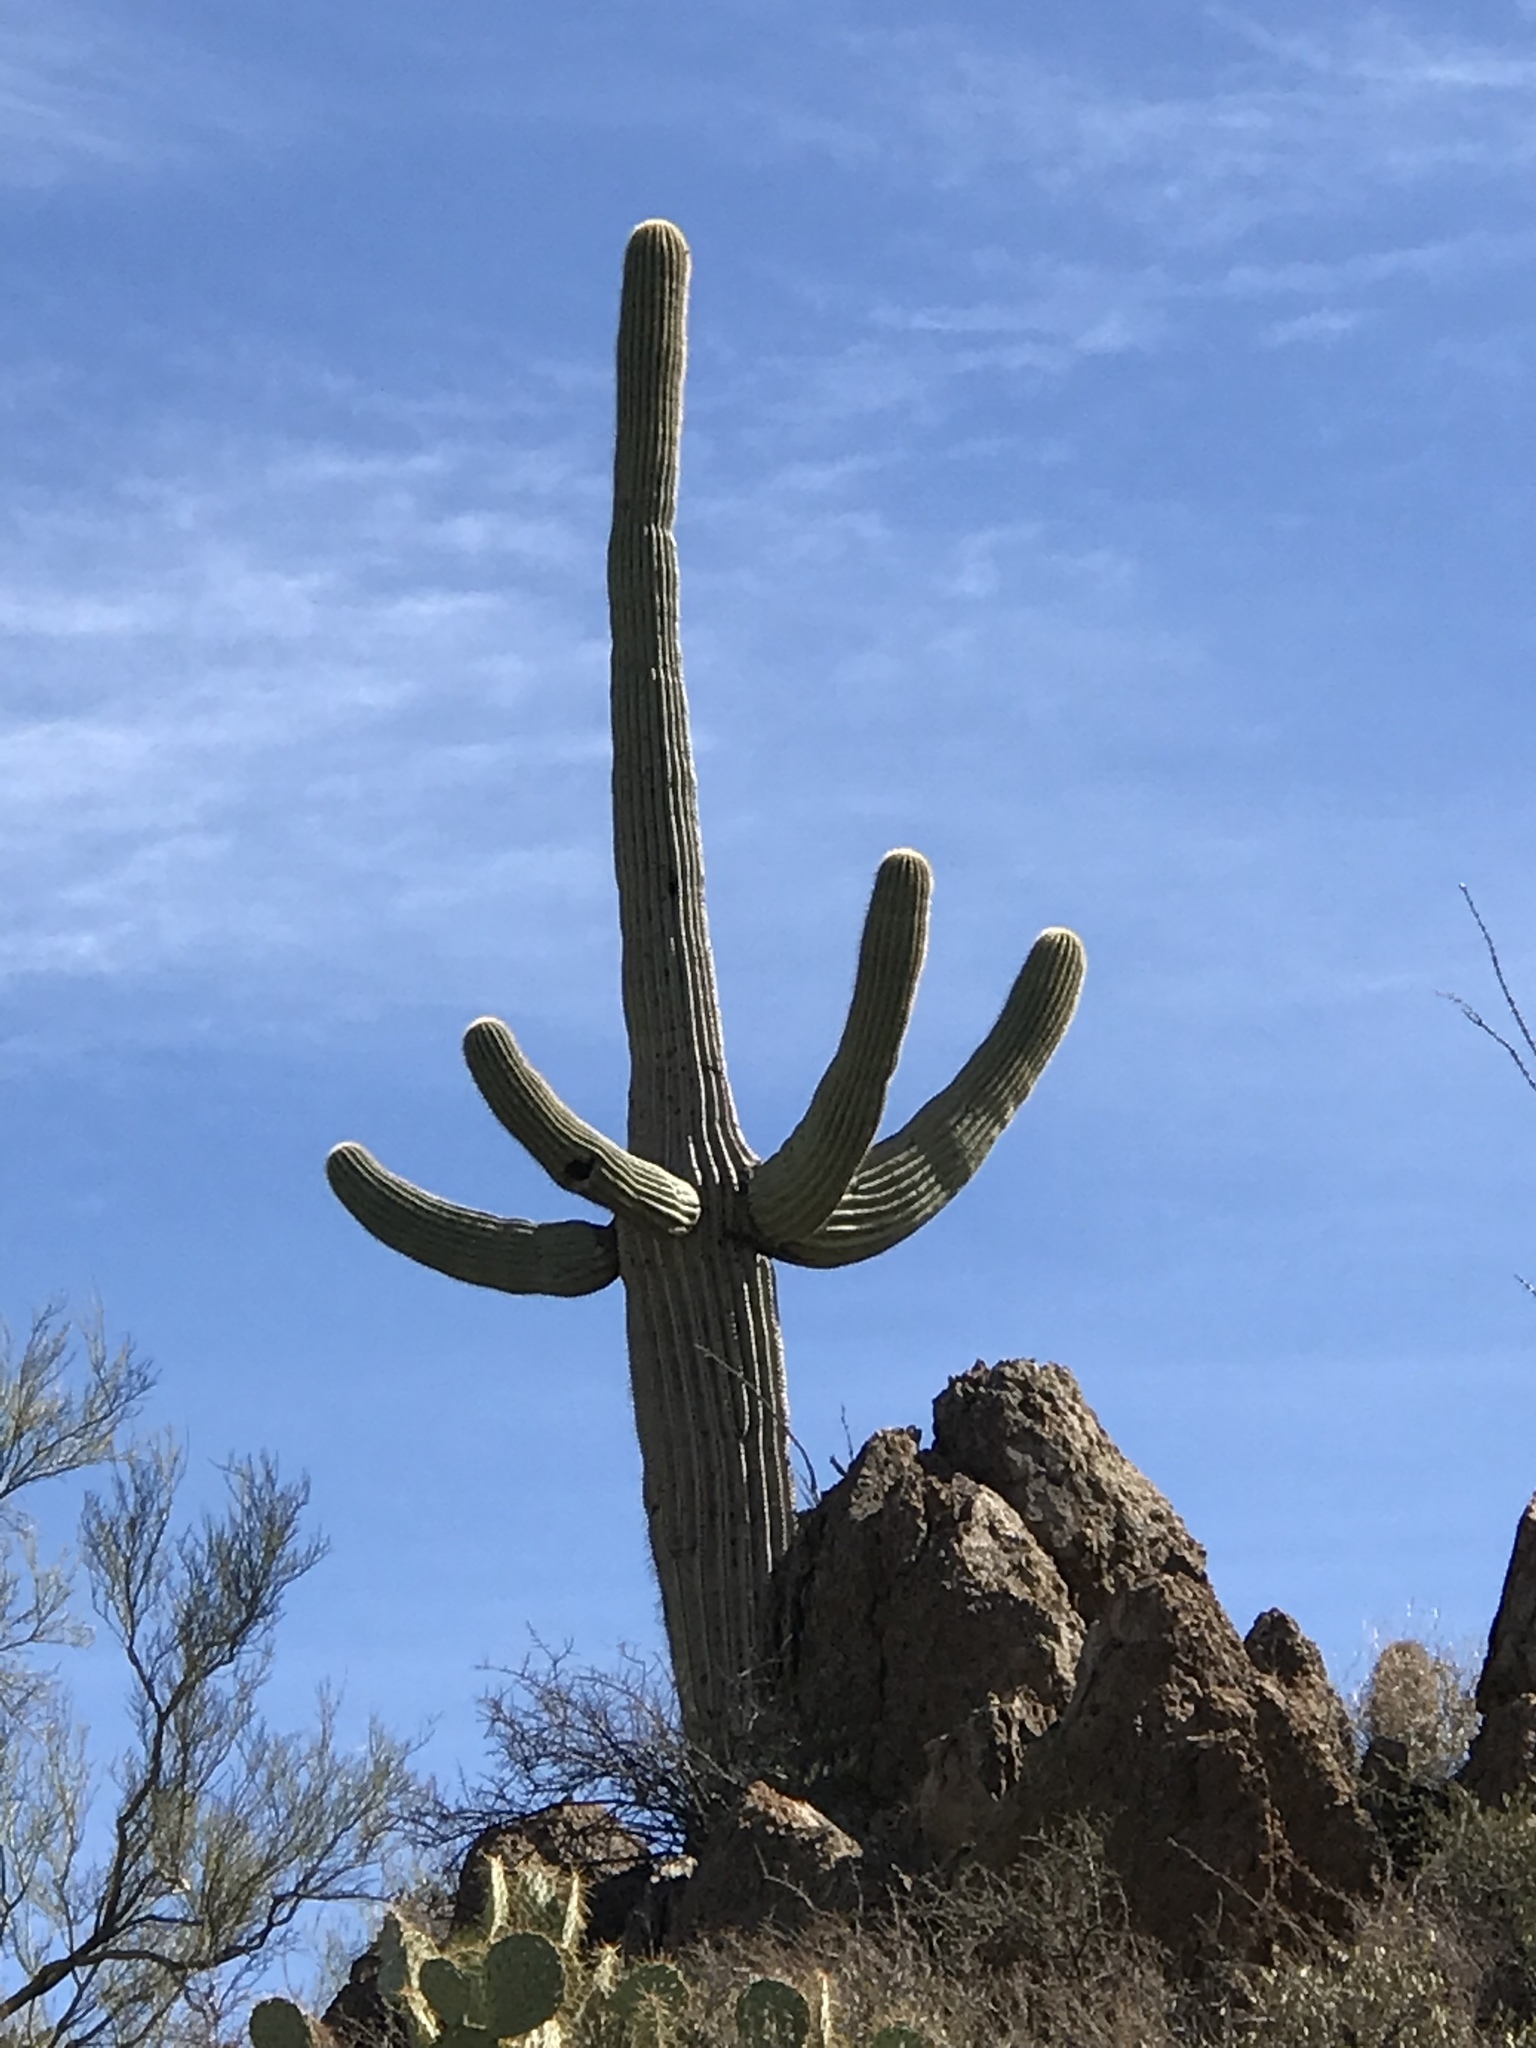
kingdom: Plantae
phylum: Tracheophyta
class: Magnoliopsida
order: Caryophyllales
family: Cactaceae
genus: Carnegiea
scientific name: Carnegiea gigantea
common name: Saguaro
